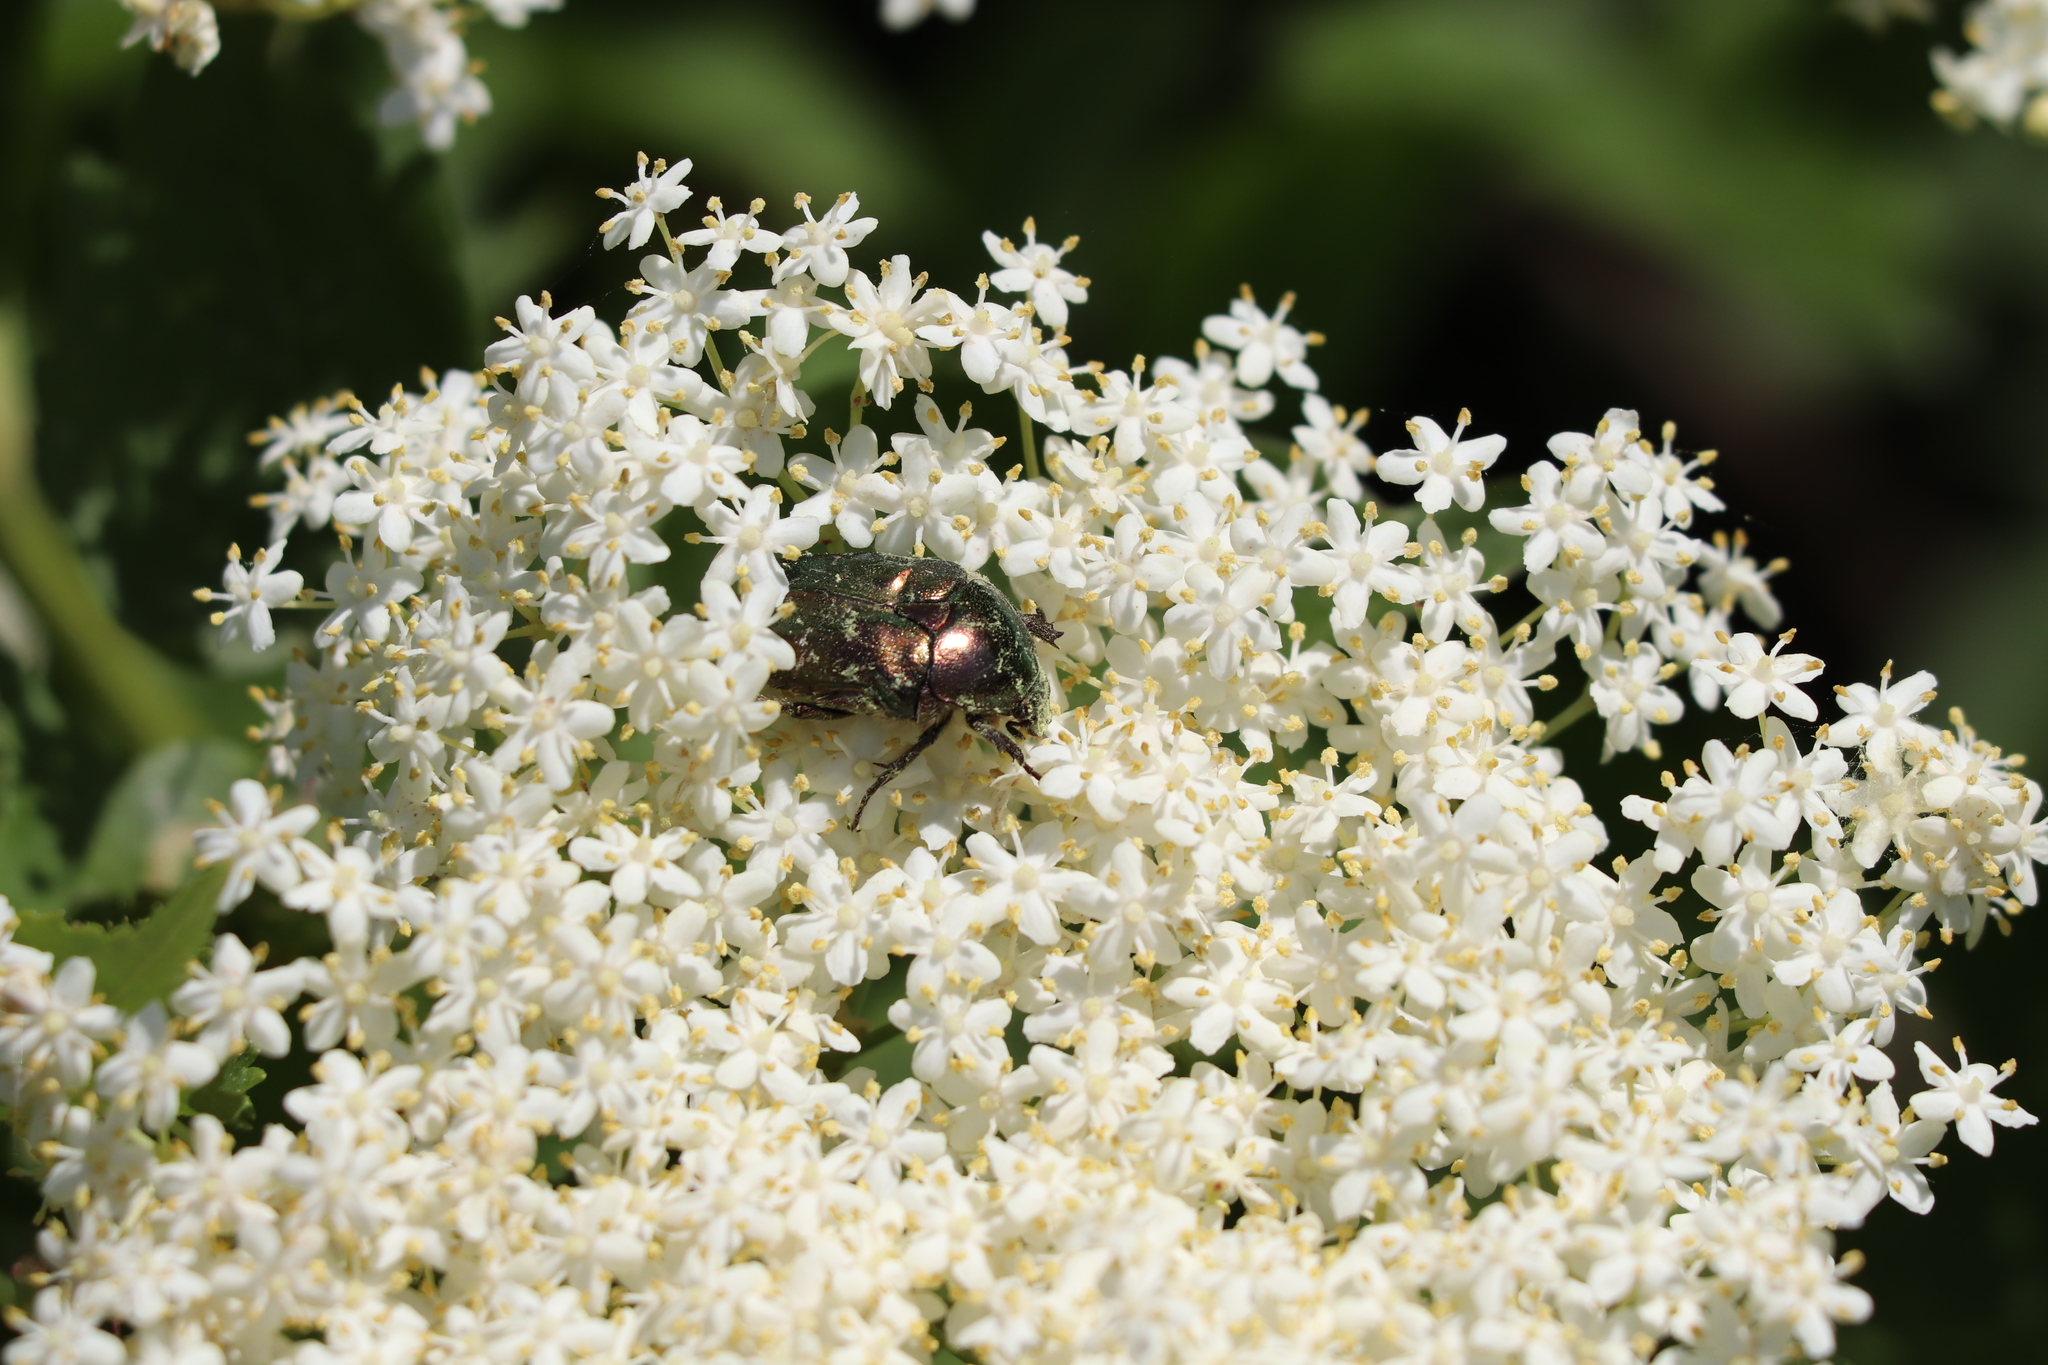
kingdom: Animalia
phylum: Arthropoda
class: Insecta
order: Coleoptera
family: Scarabaeidae
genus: Cetonia
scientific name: Cetonia aurata
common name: Rose chafer
